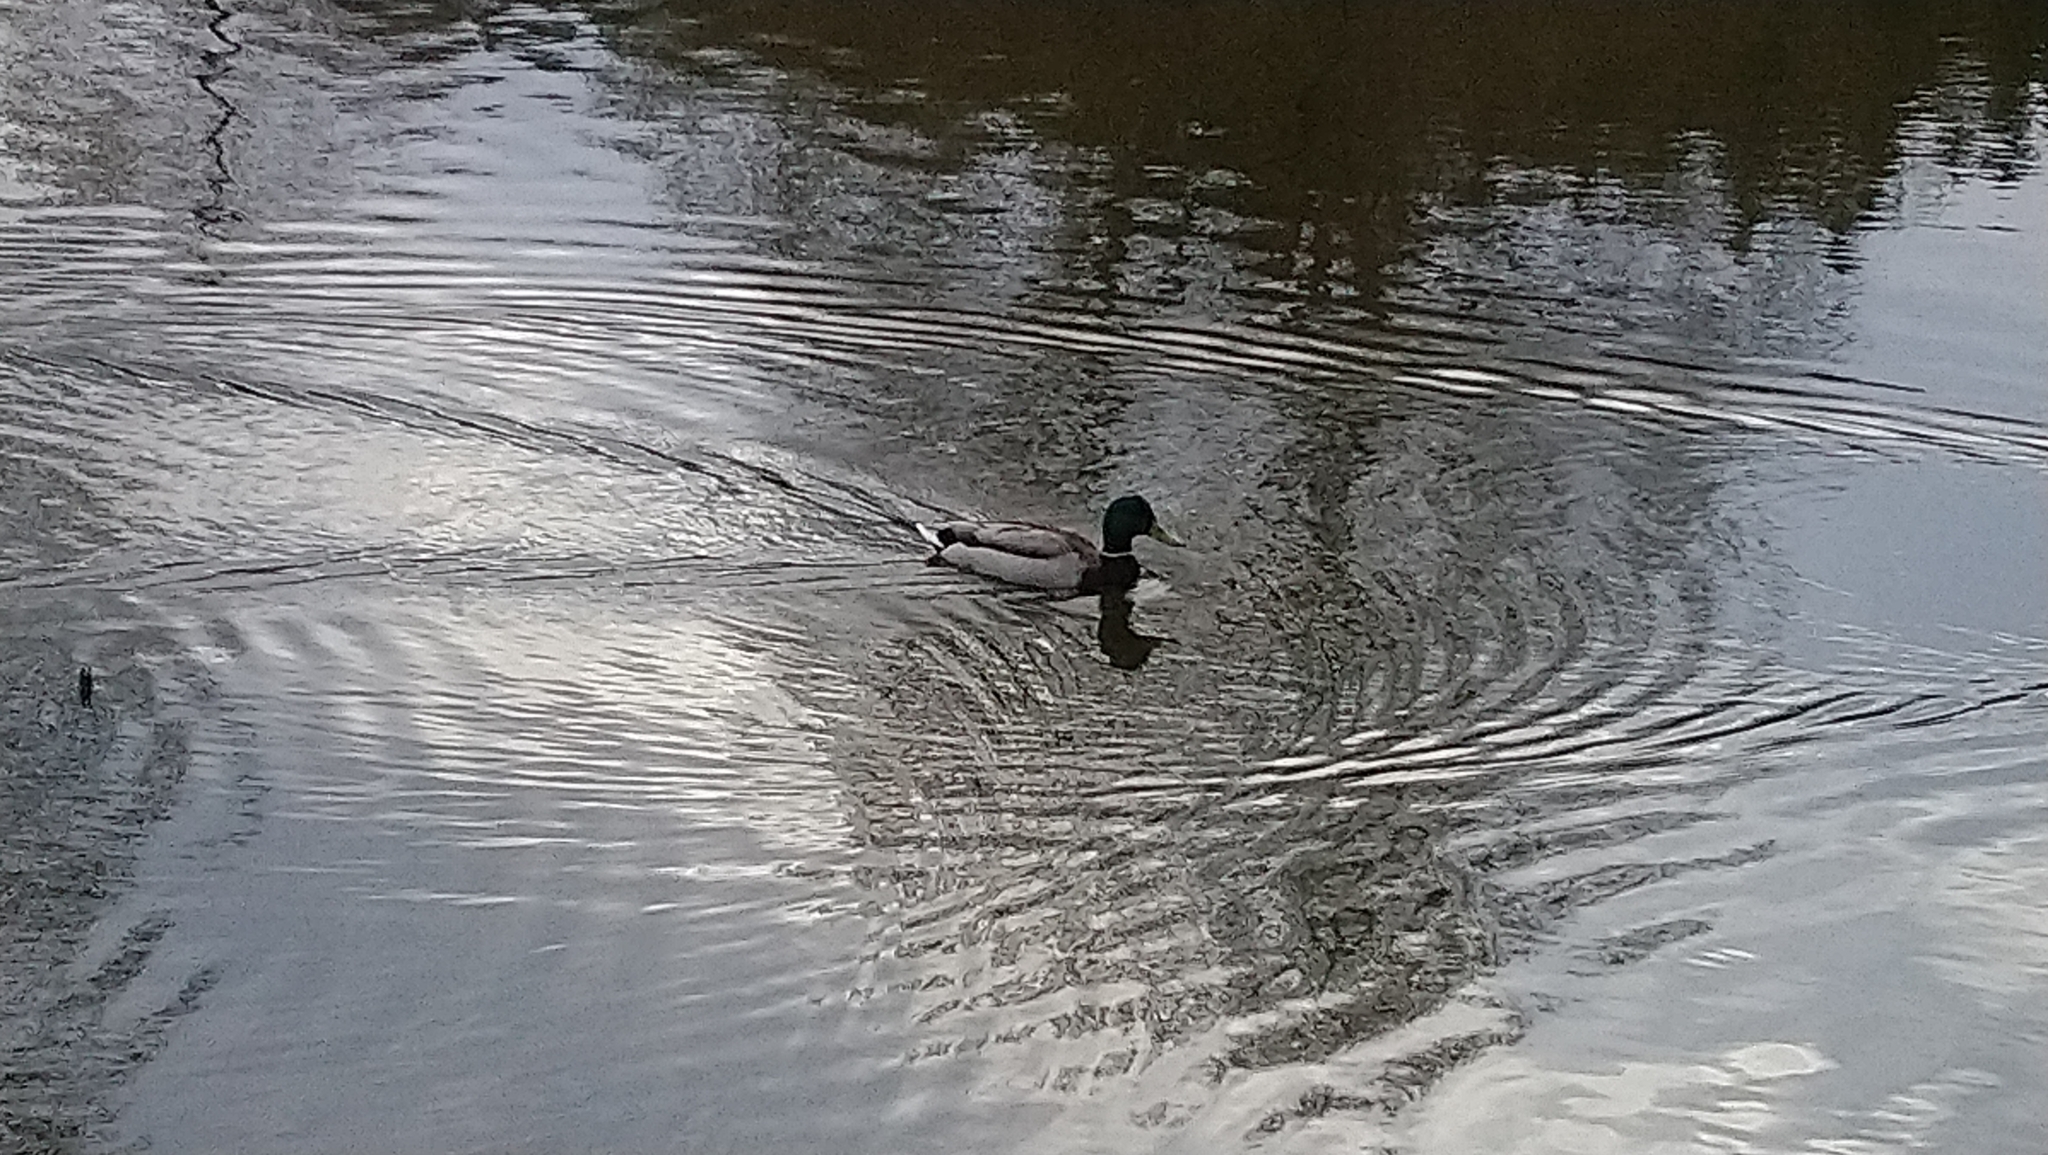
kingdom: Animalia
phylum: Chordata
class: Aves
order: Anseriformes
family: Anatidae
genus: Anas
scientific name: Anas platyrhynchos
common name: Mallard
